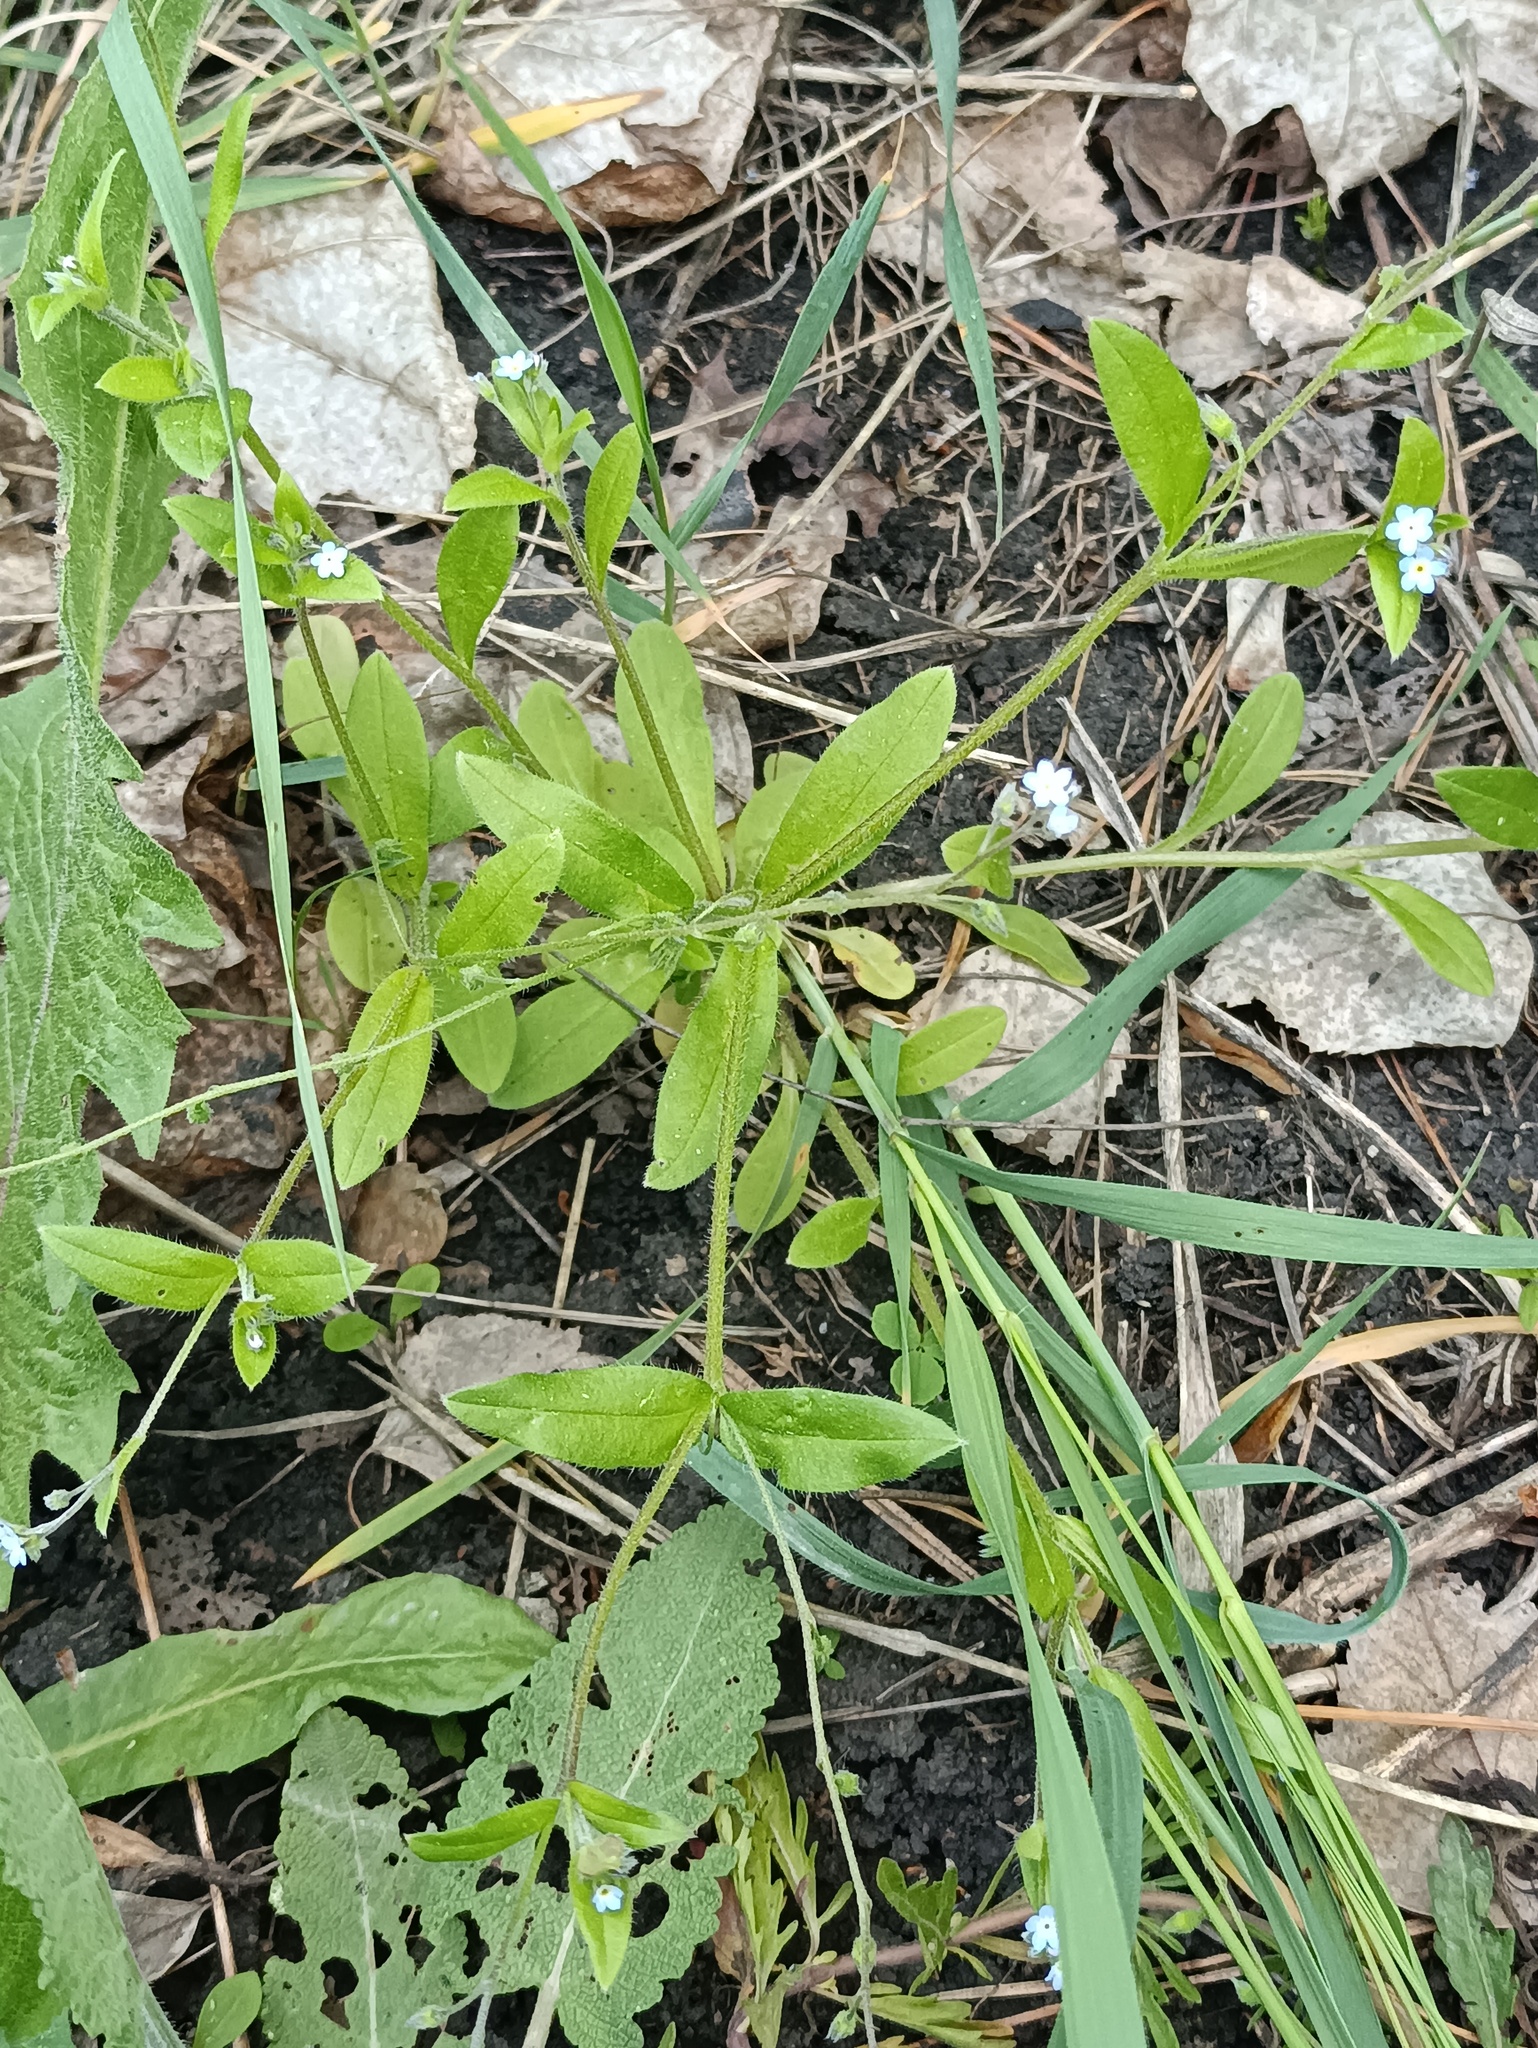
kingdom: Plantae
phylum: Tracheophyta
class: Magnoliopsida
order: Boraginales
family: Boraginaceae
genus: Myosotis
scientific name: Myosotis sparsiflora
